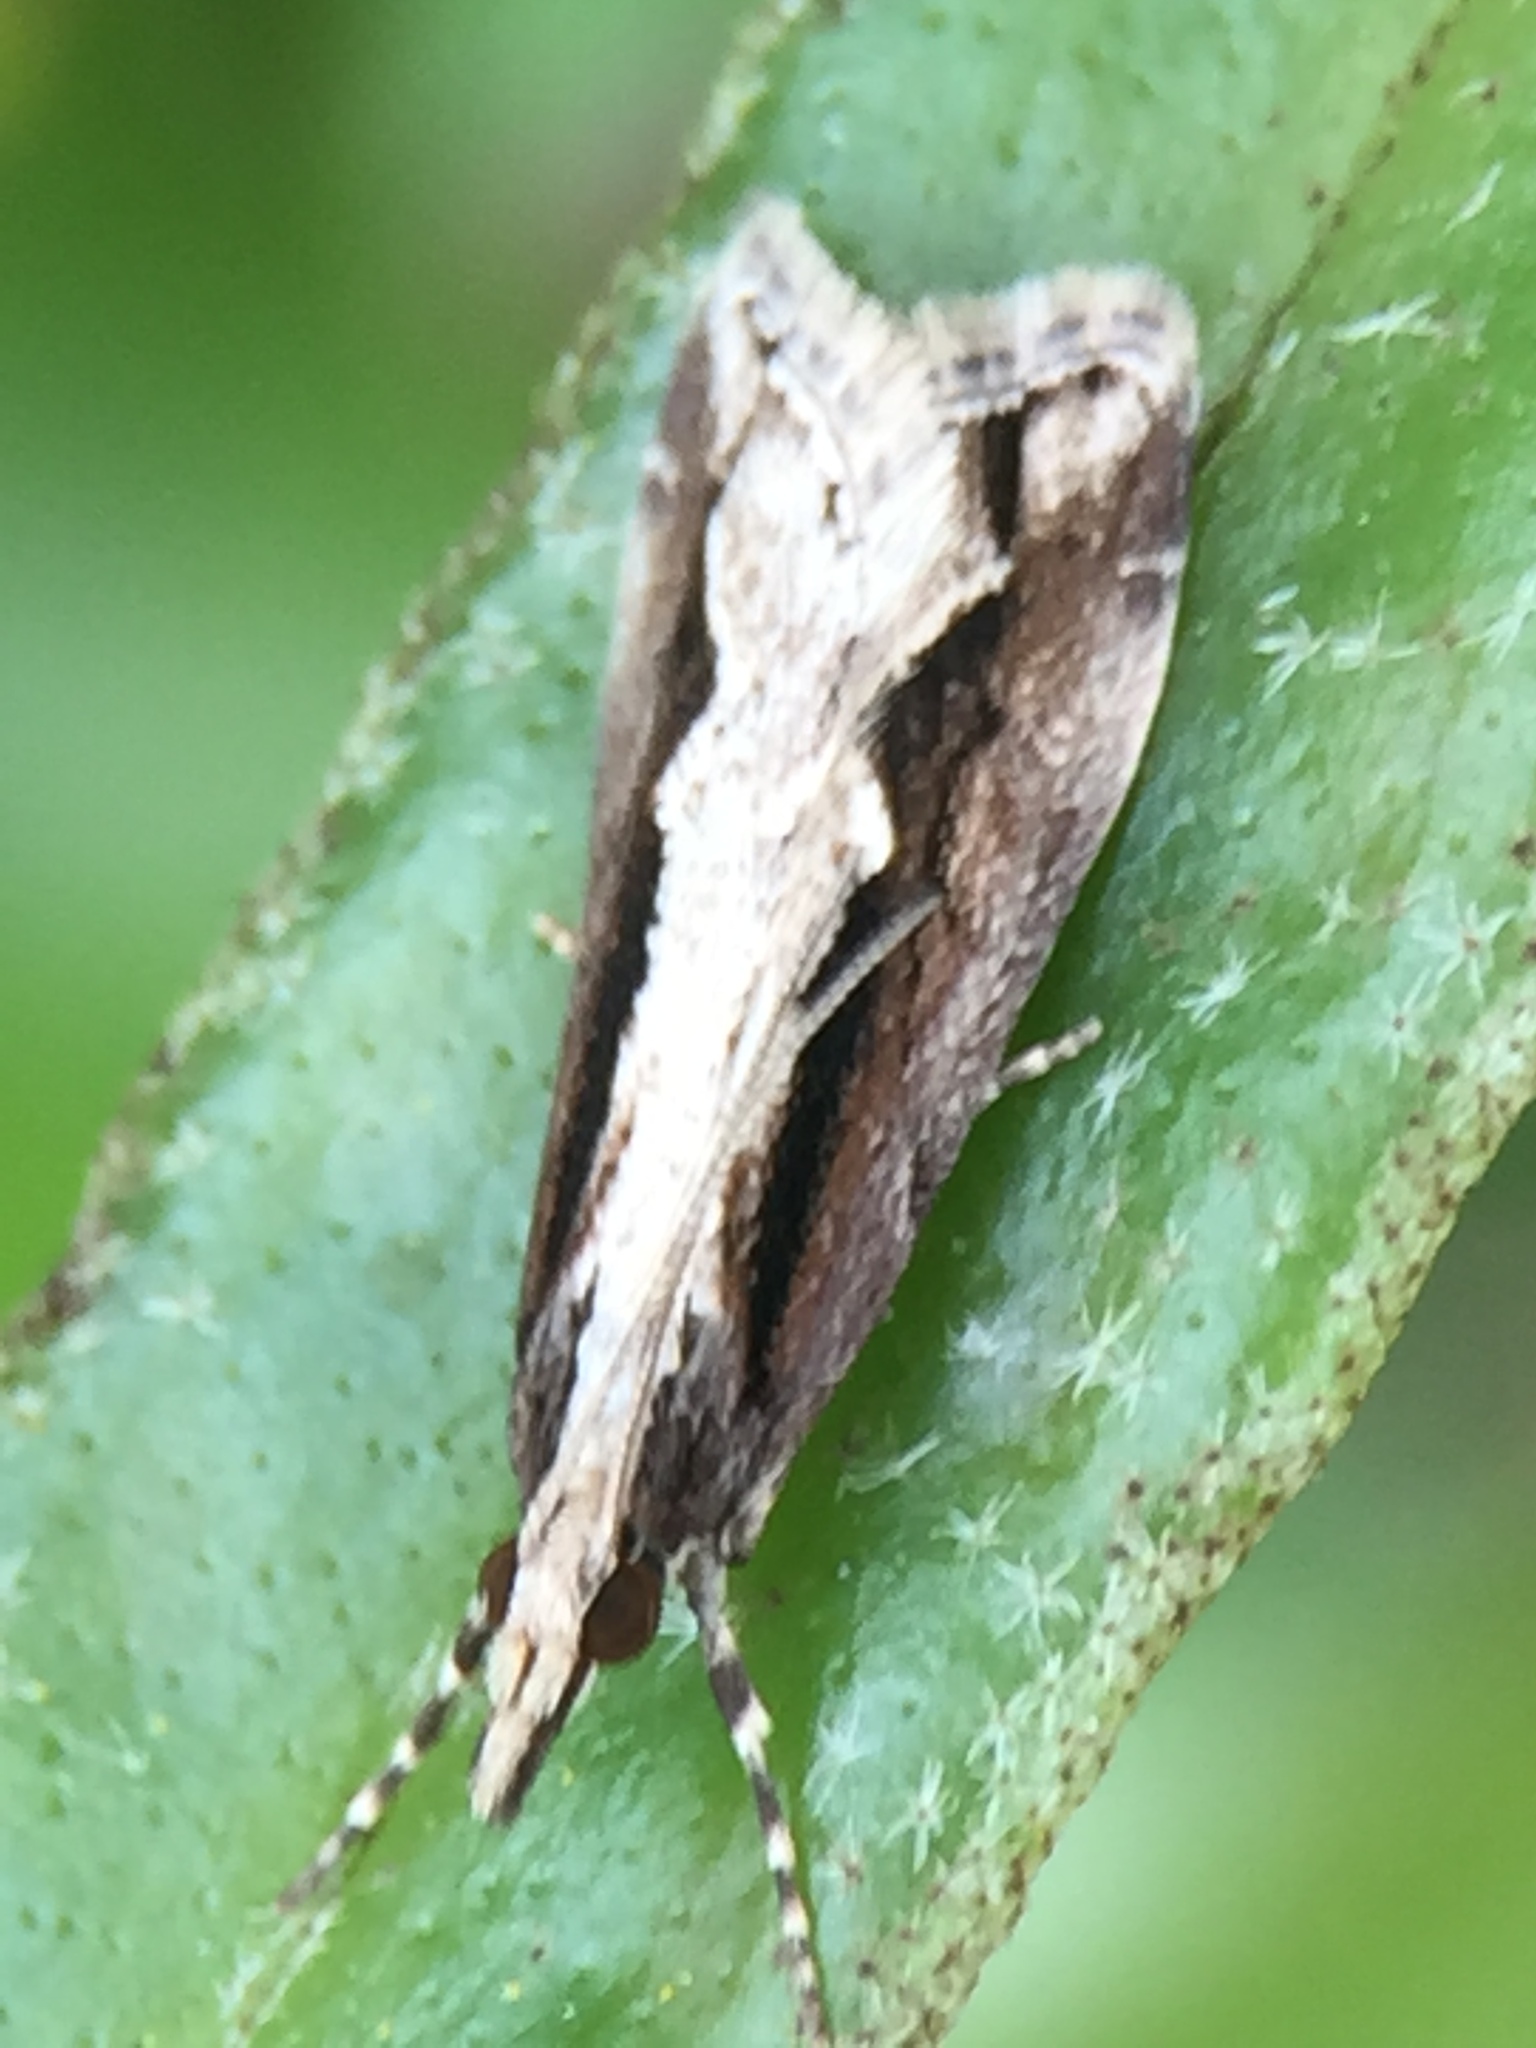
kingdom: Animalia
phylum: Arthropoda
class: Insecta
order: Lepidoptera
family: Crambidae
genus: Eudonia
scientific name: Eudonia steropaea
